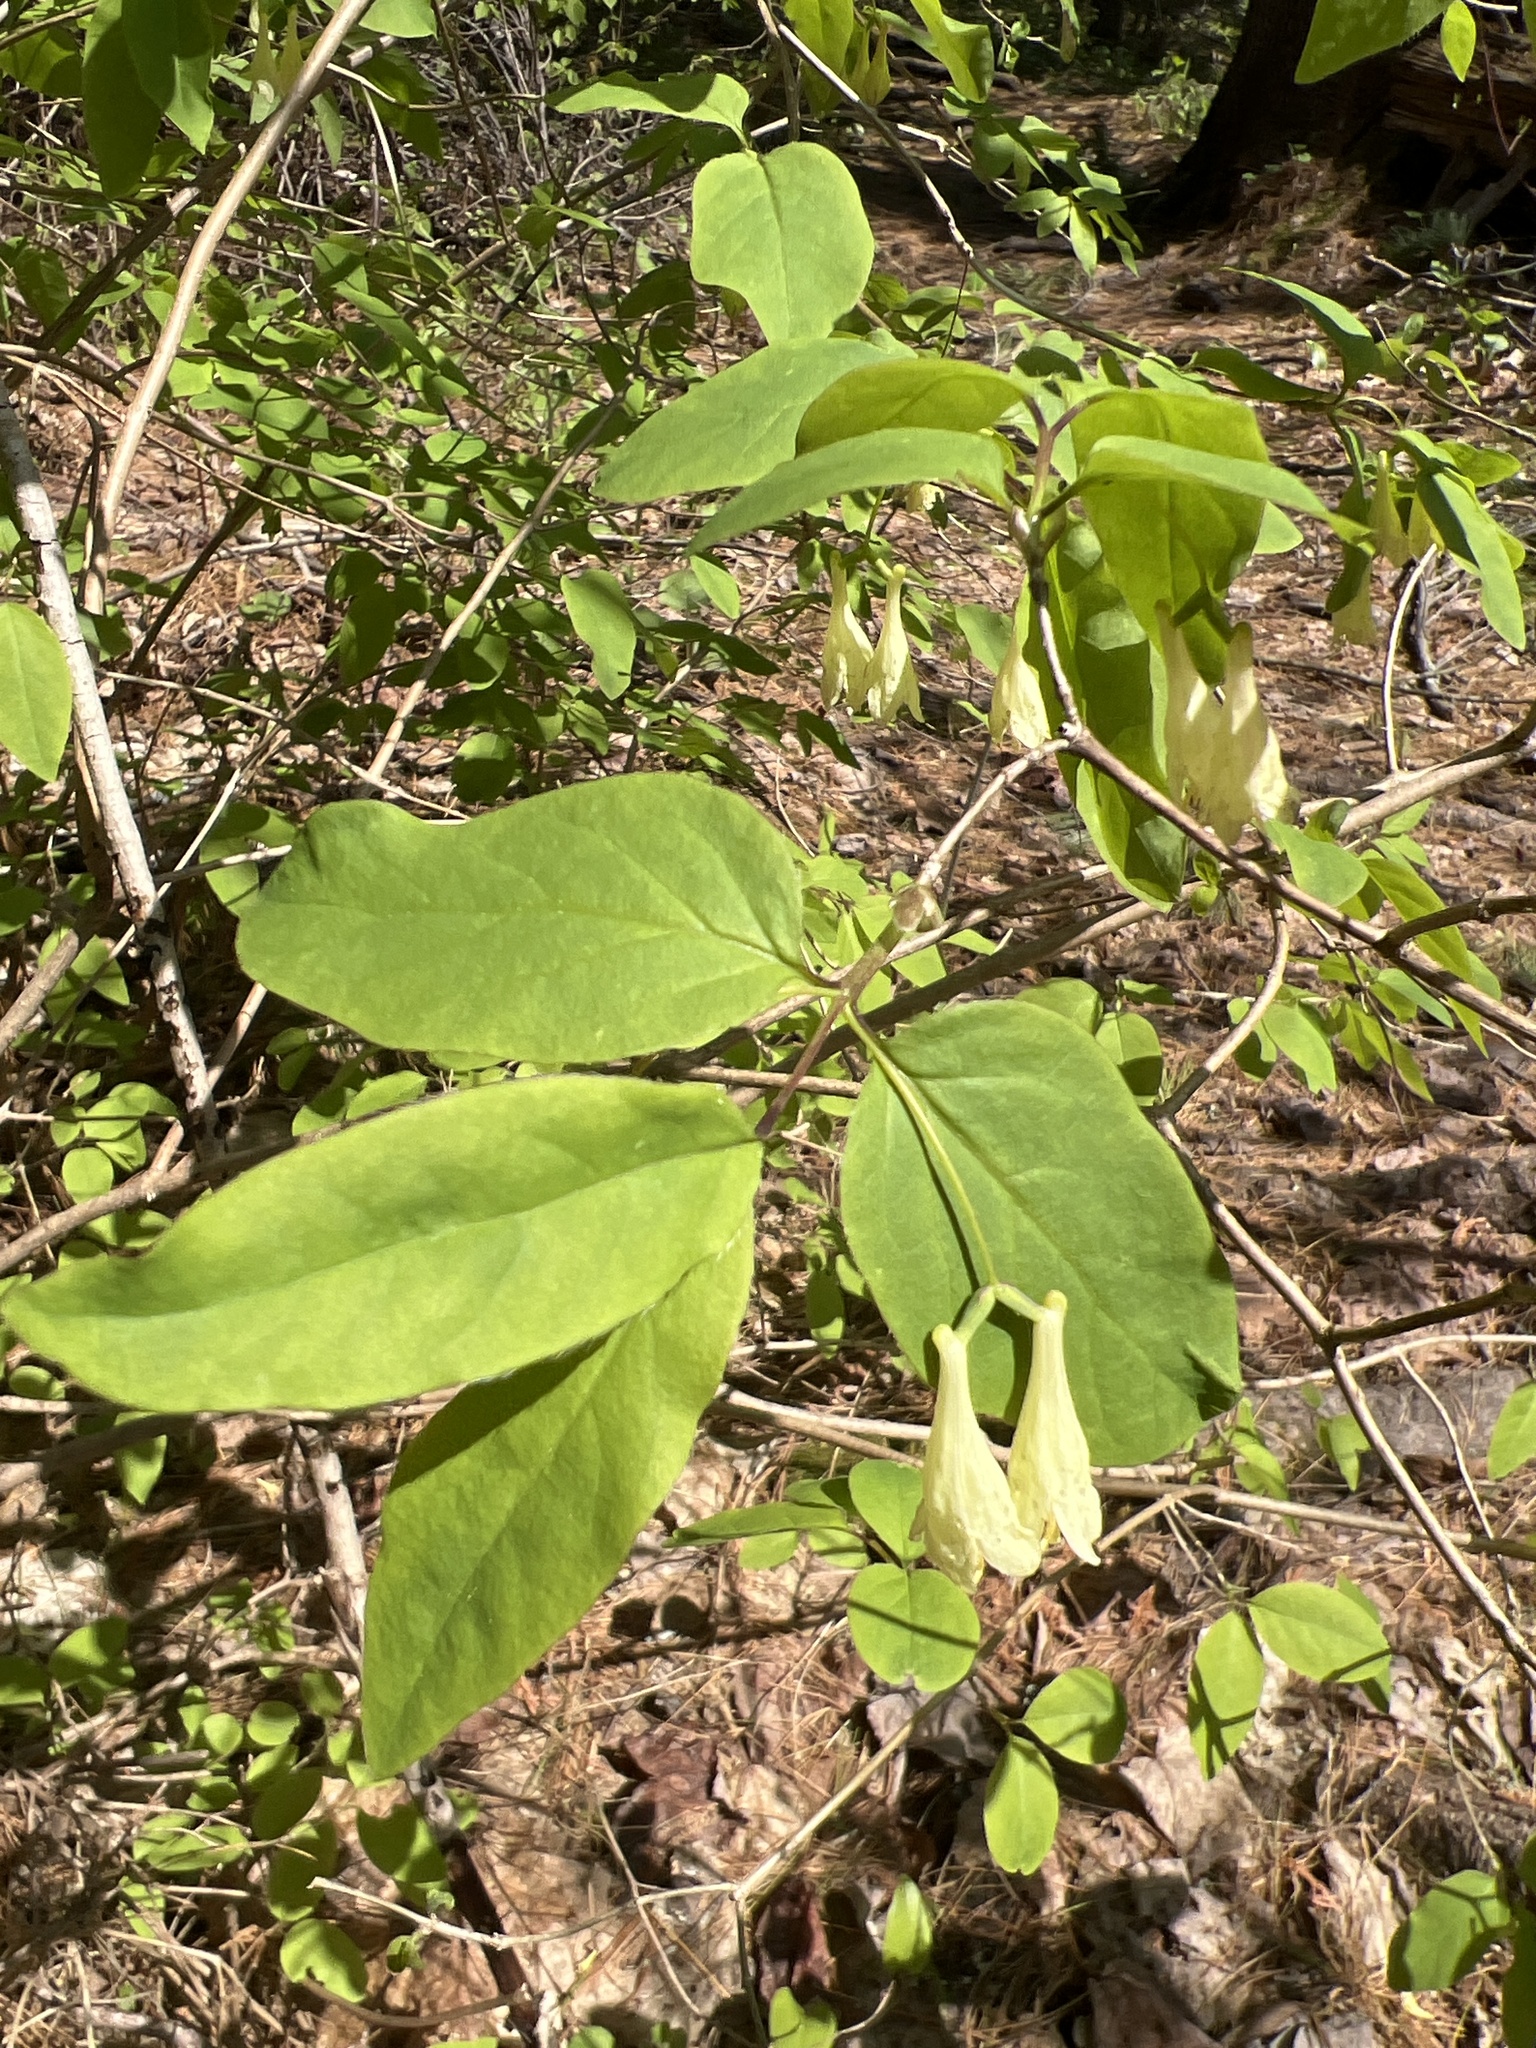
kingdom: Plantae
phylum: Tracheophyta
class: Magnoliopsida
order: Dipsacales
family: Caprifoliaceae
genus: Lonicera
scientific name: Lonicera canadensis
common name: American fly-honeysuckle
